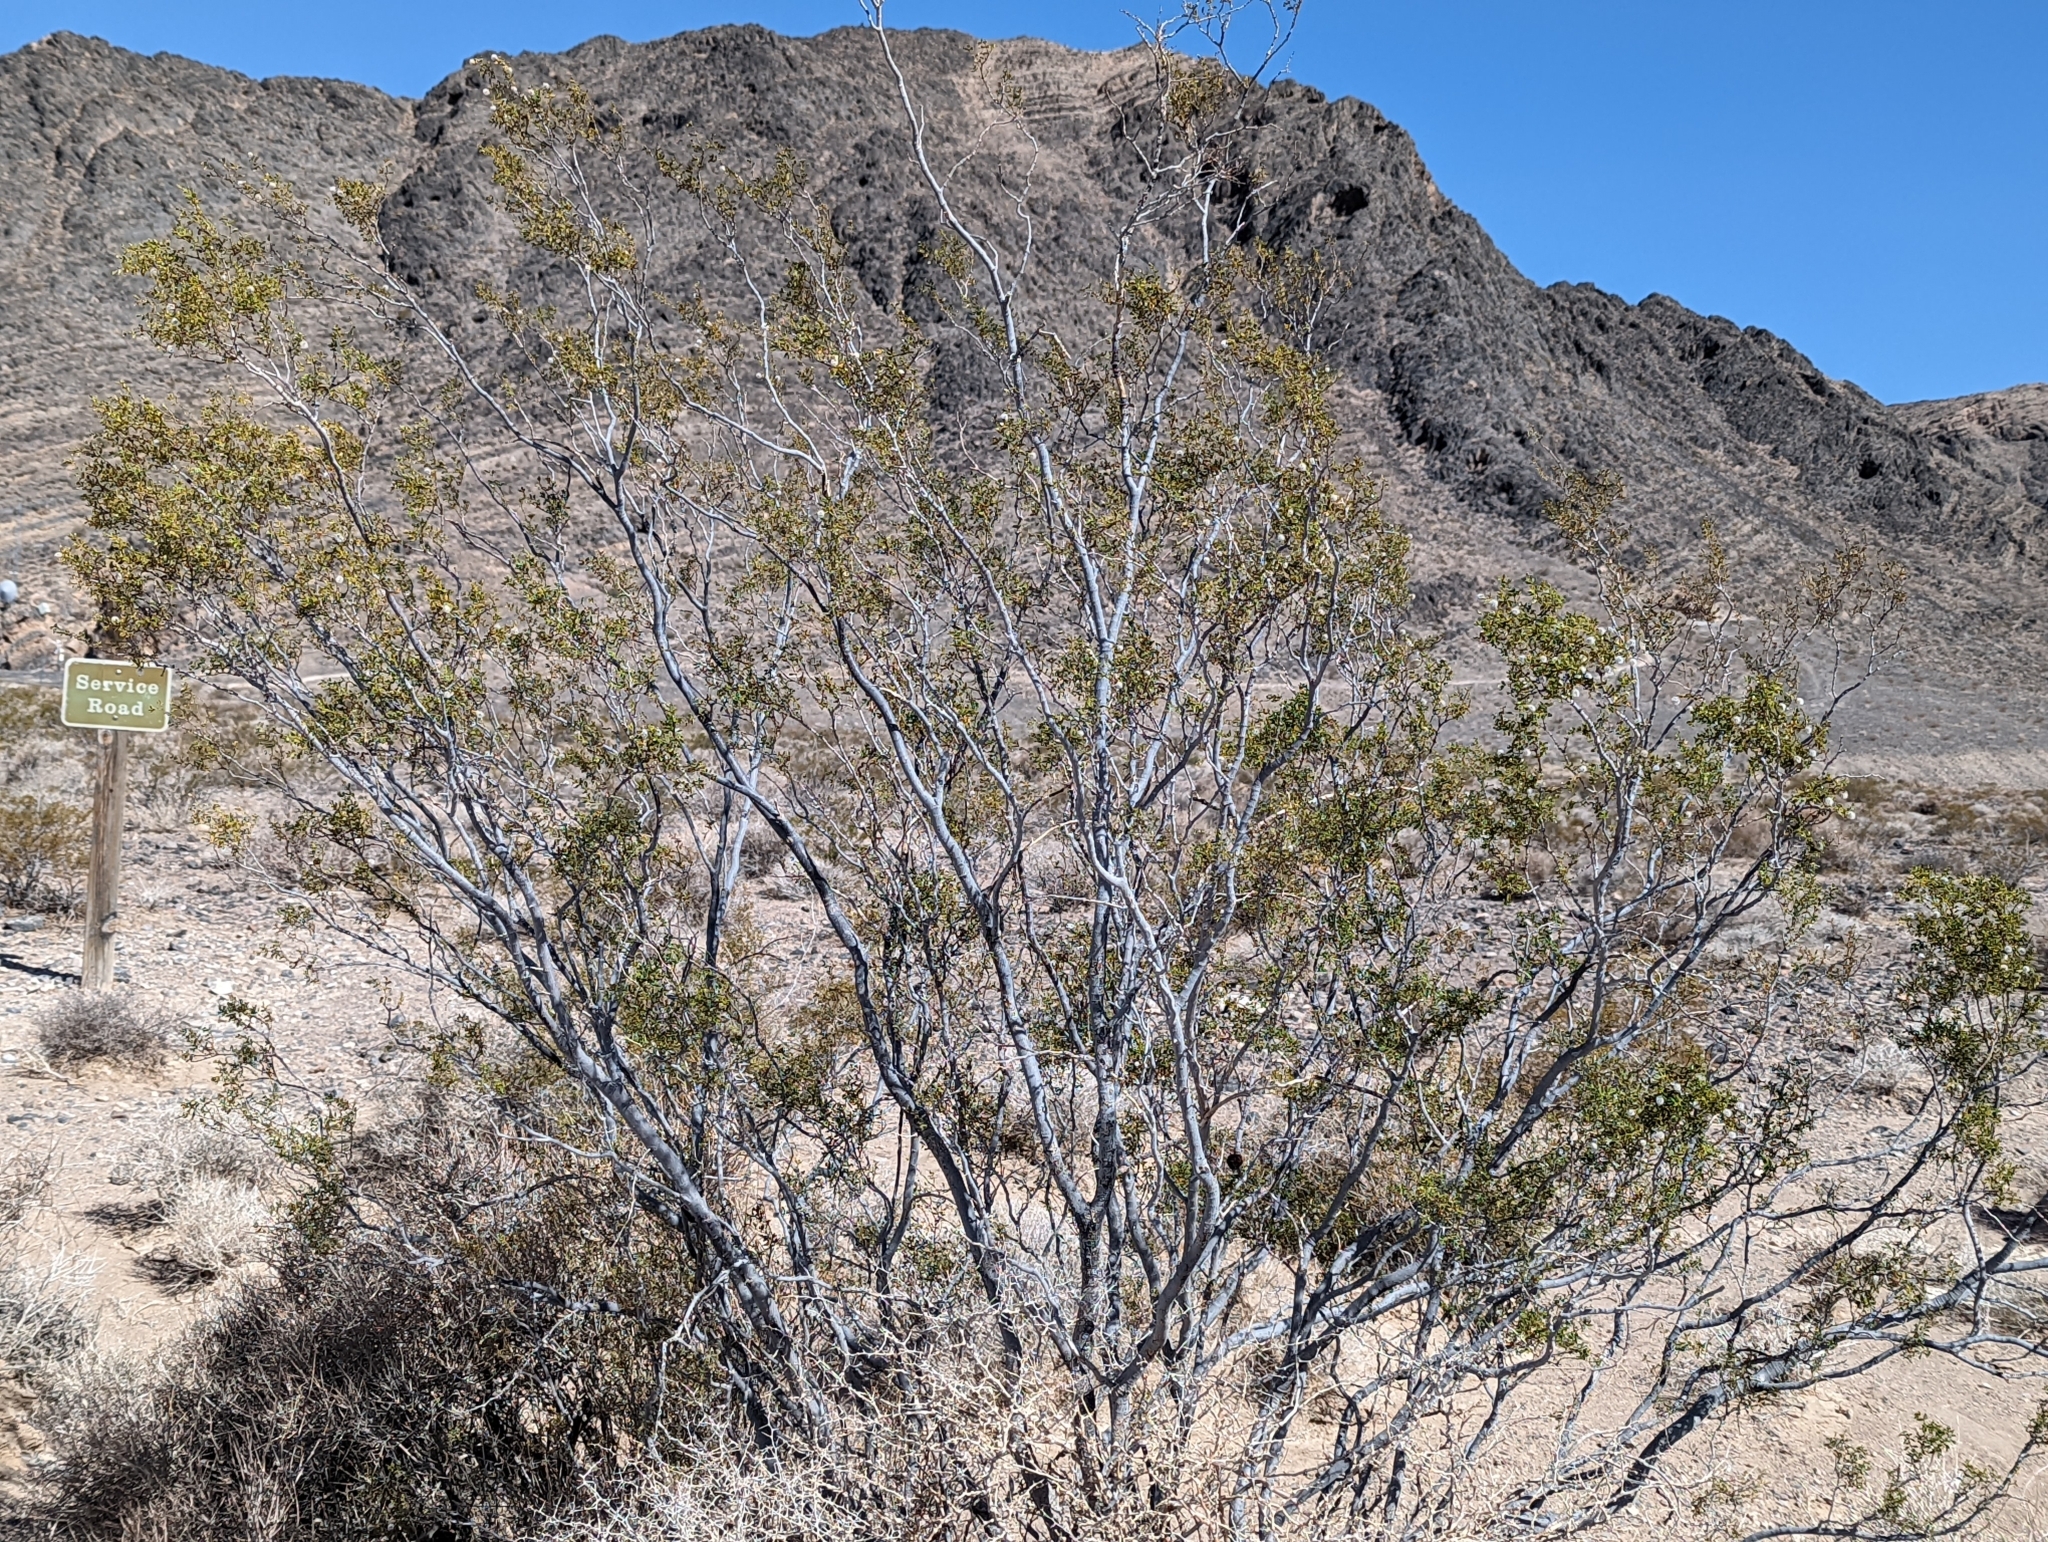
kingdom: Plantae
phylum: Tracheophyta
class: Magnoliopsida
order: Zygophyllales
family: Zygophyllaceae
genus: Larrea
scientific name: Larrea tridentata
